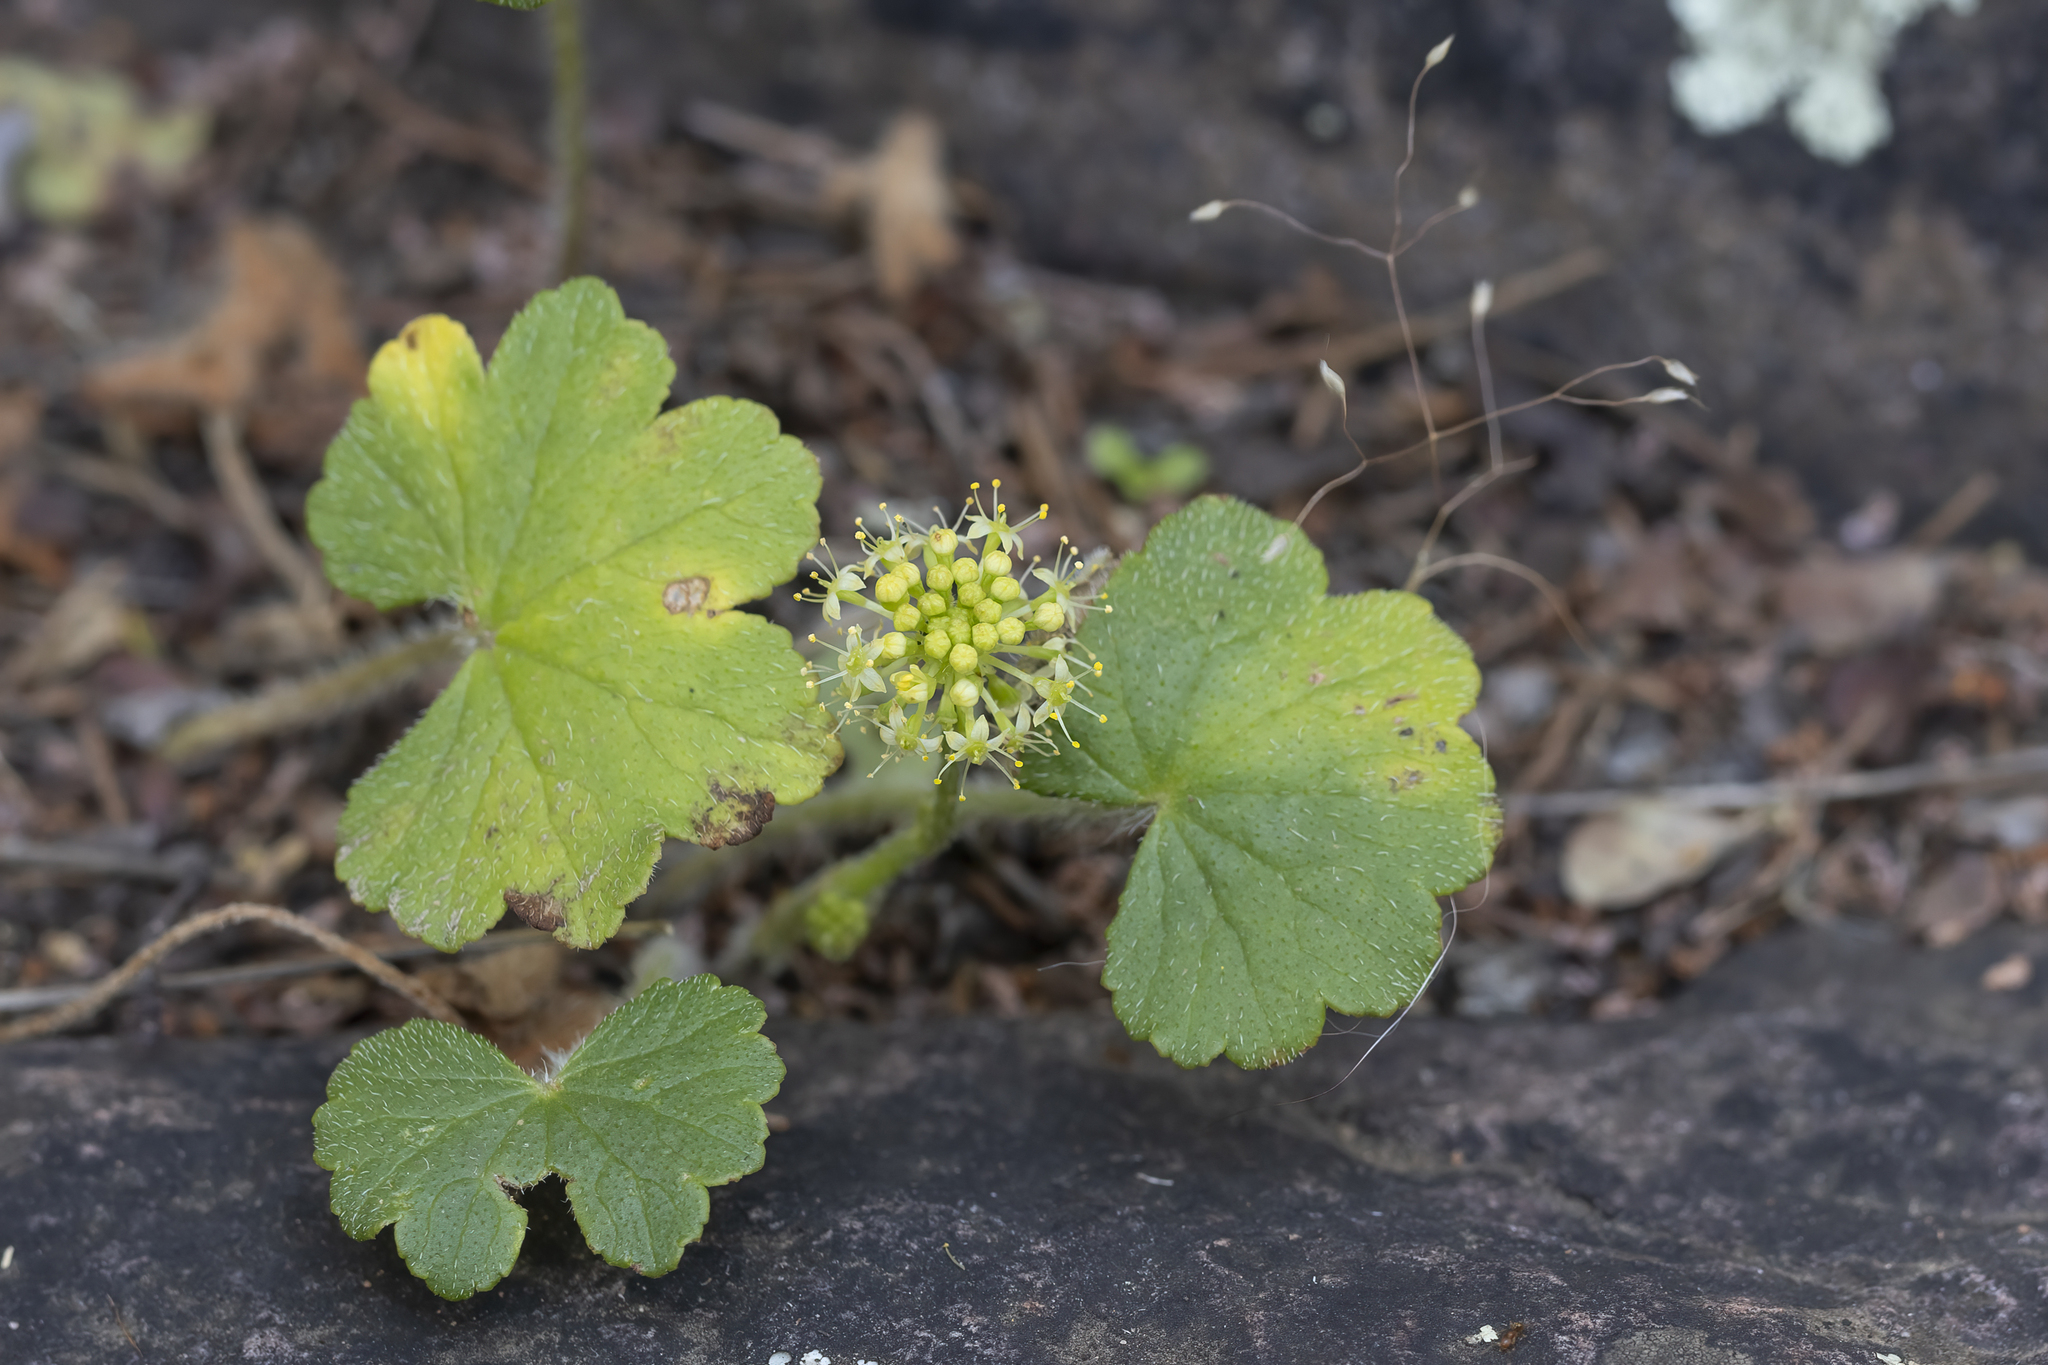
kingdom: Plantae
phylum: Tracheophyta
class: Magnoliopsida
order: Apiales
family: Araliaceae
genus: Hydrocotyle
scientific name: Hydrocotyle laxiflora
